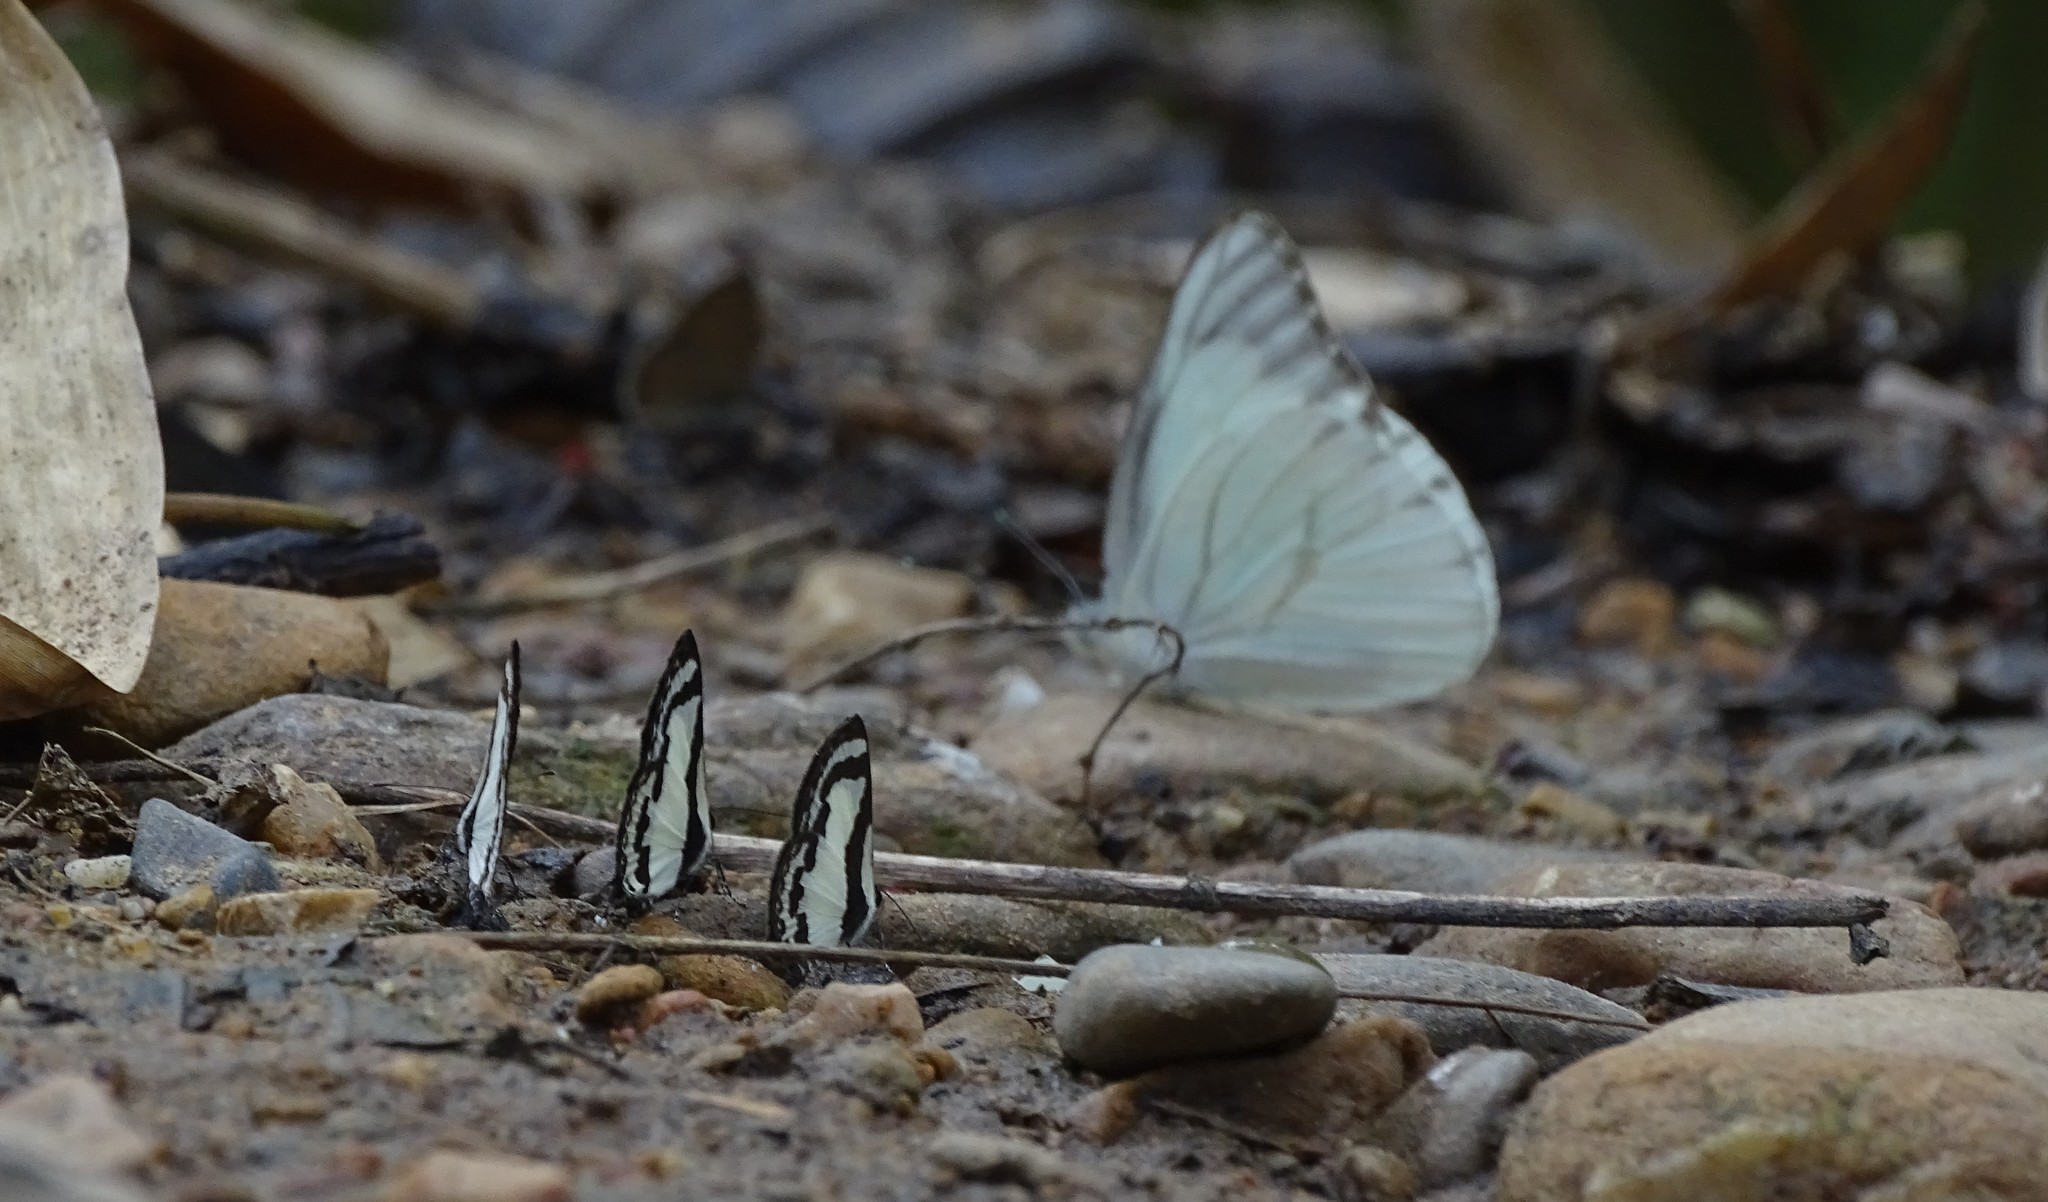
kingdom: Animalia
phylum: Arthropoda
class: Insecta
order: Lepidoptera
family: Lycaenidae
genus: Caleta
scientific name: Caleta roxus
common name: Straight pierrot
